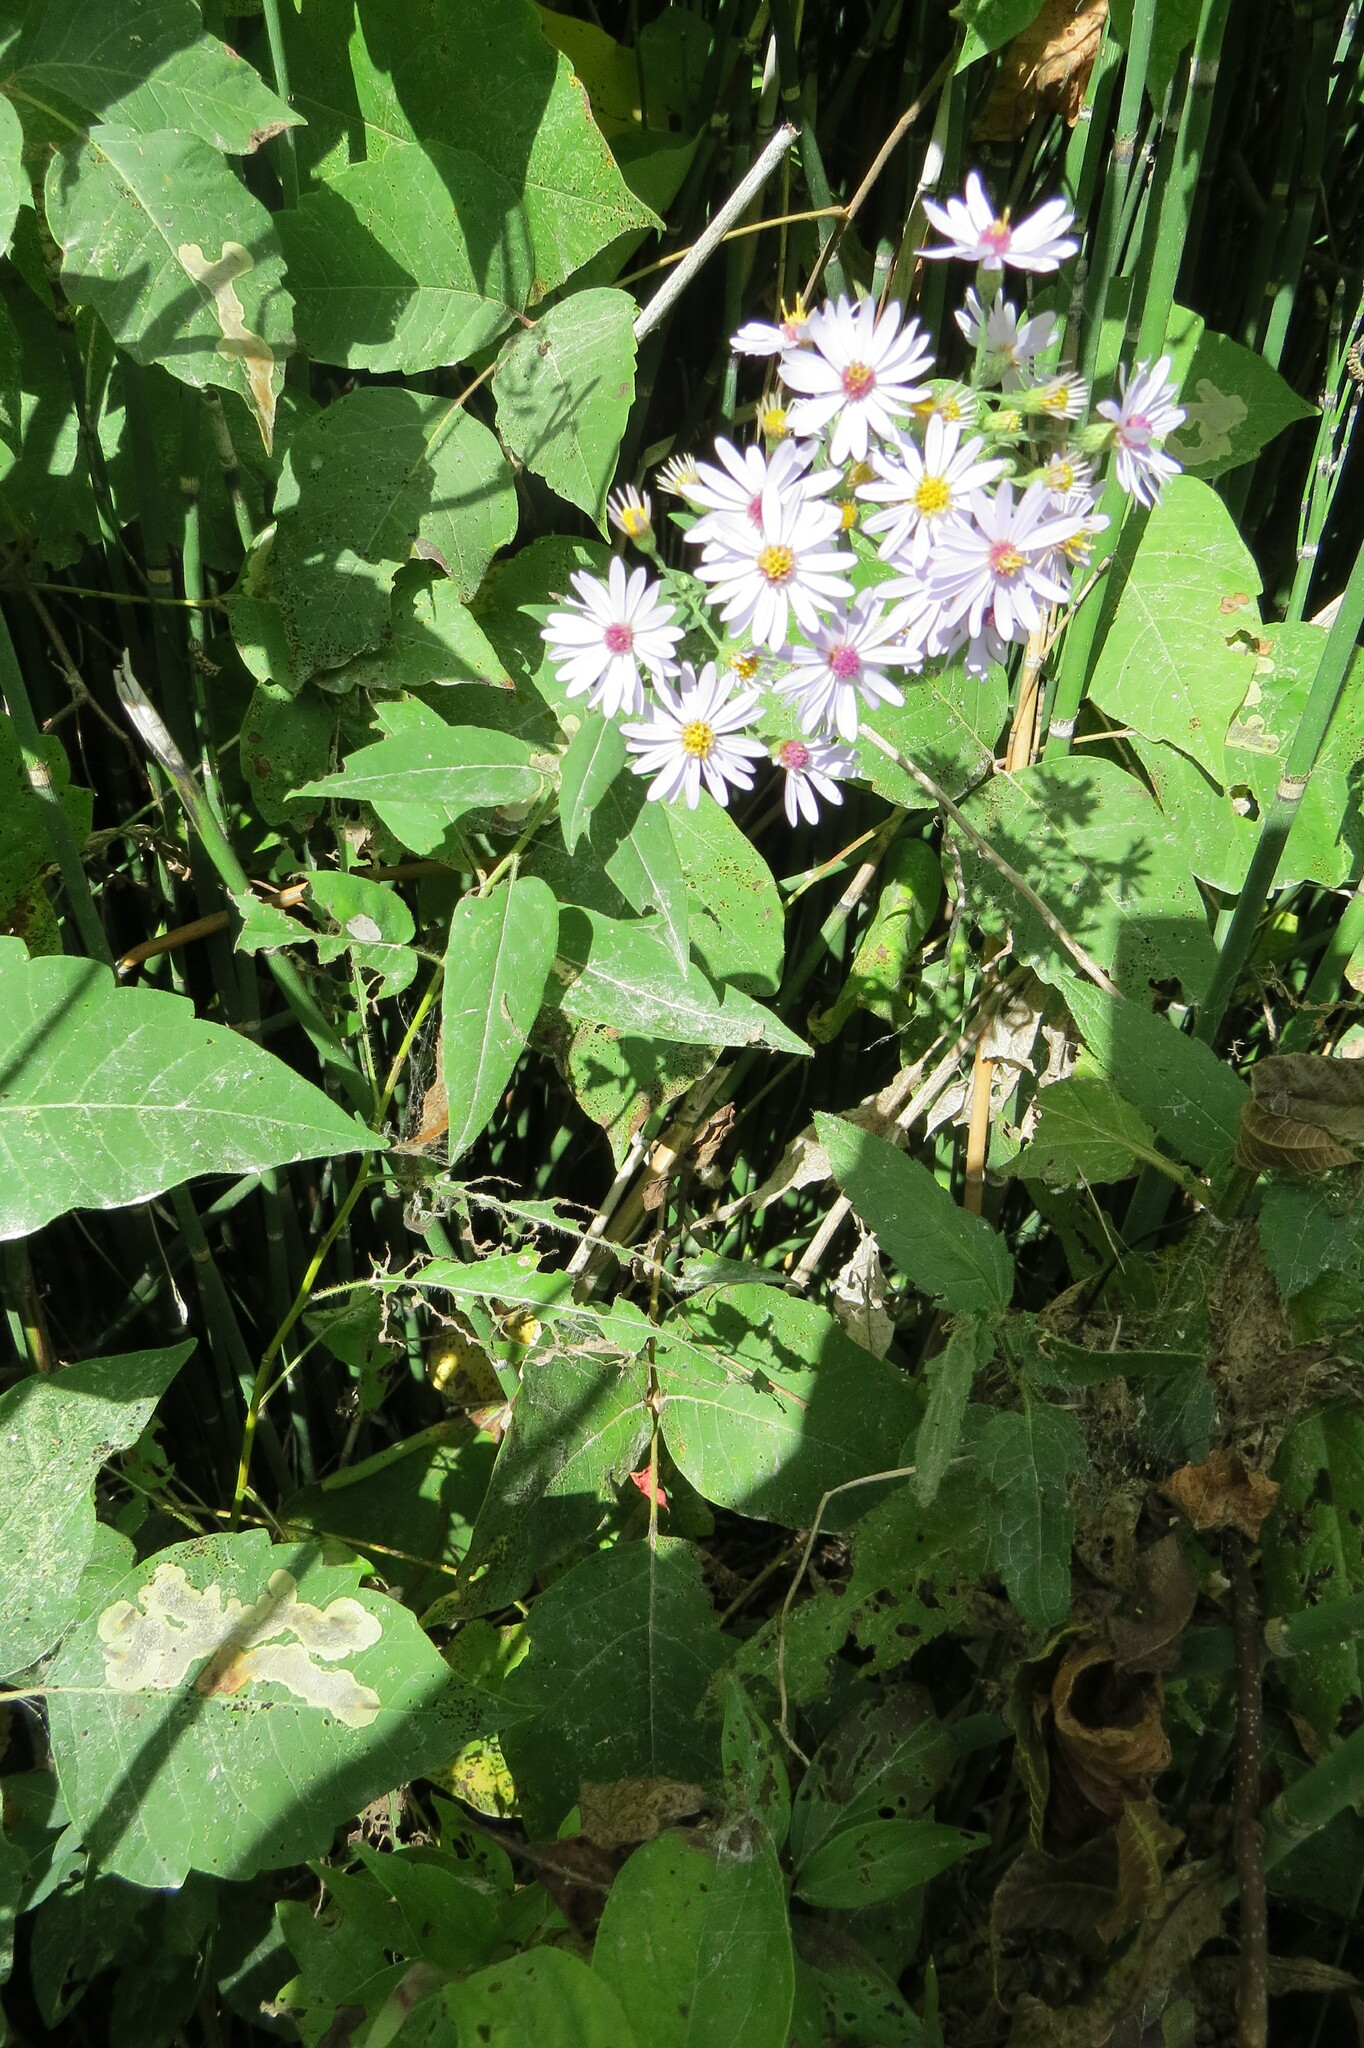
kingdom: Plantae
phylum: Tracheophyta
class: Magnoliopsida
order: Asterales
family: Asteraceae
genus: Symphyotrichum
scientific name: Symphyotrichum shortii
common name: Short's aster
